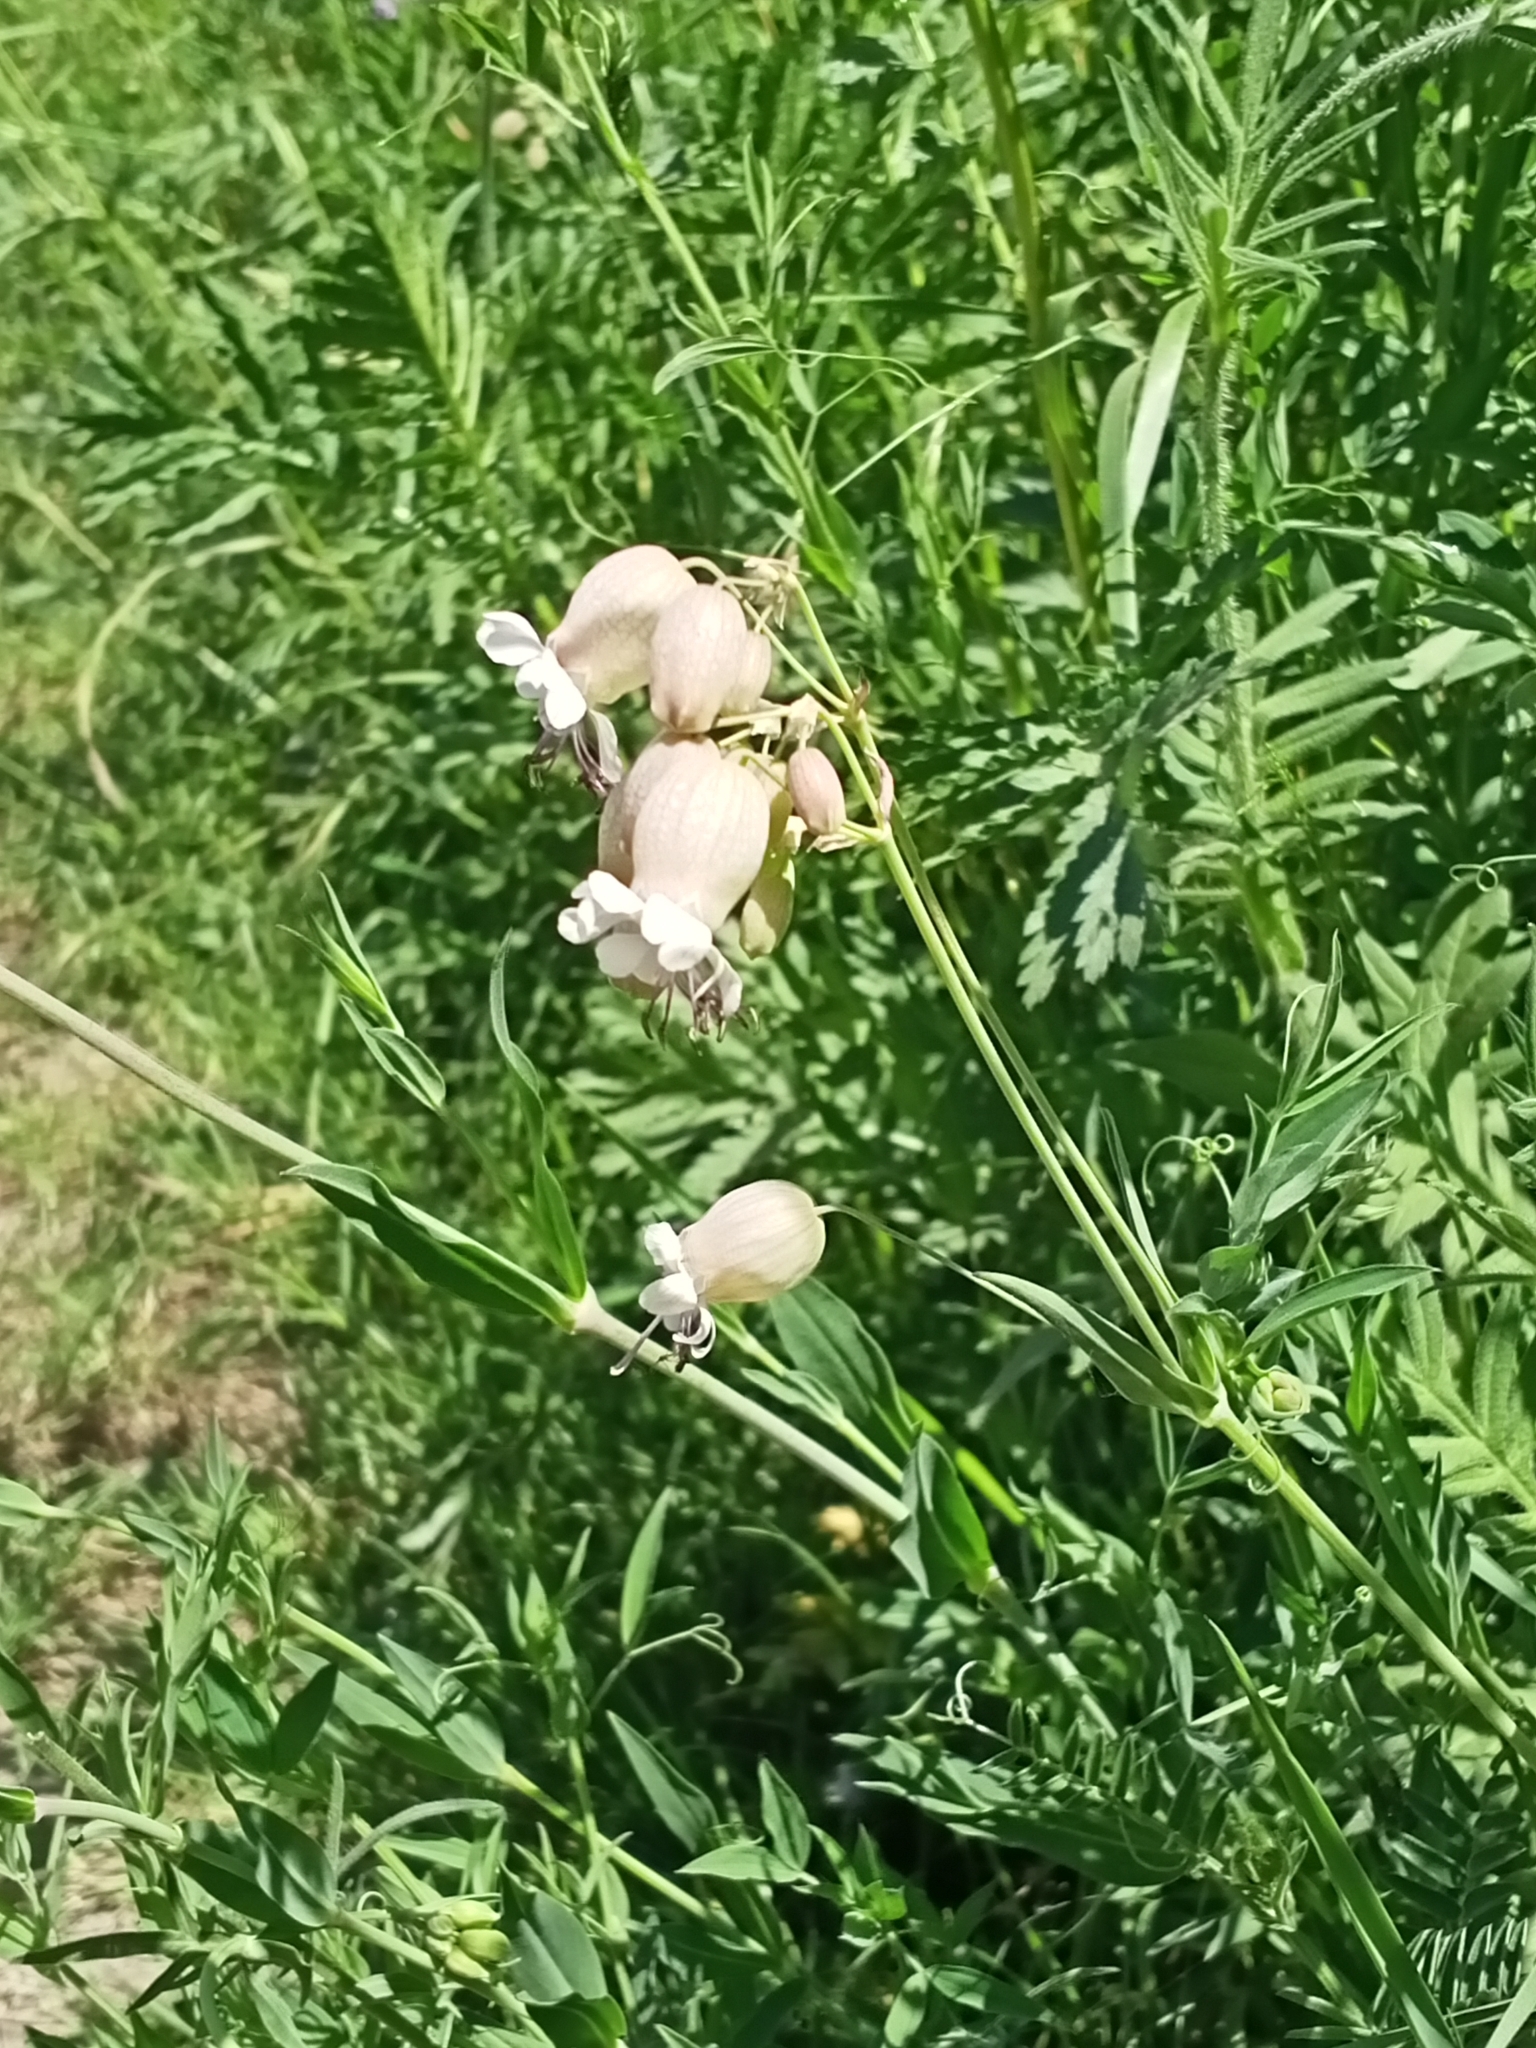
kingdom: Plantae
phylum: Tracheophyta
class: Magnoliopsida
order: Caryophyllales
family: Caryophyllaceae
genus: Silene
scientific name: Silene vulgaris
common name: Bladder campion
